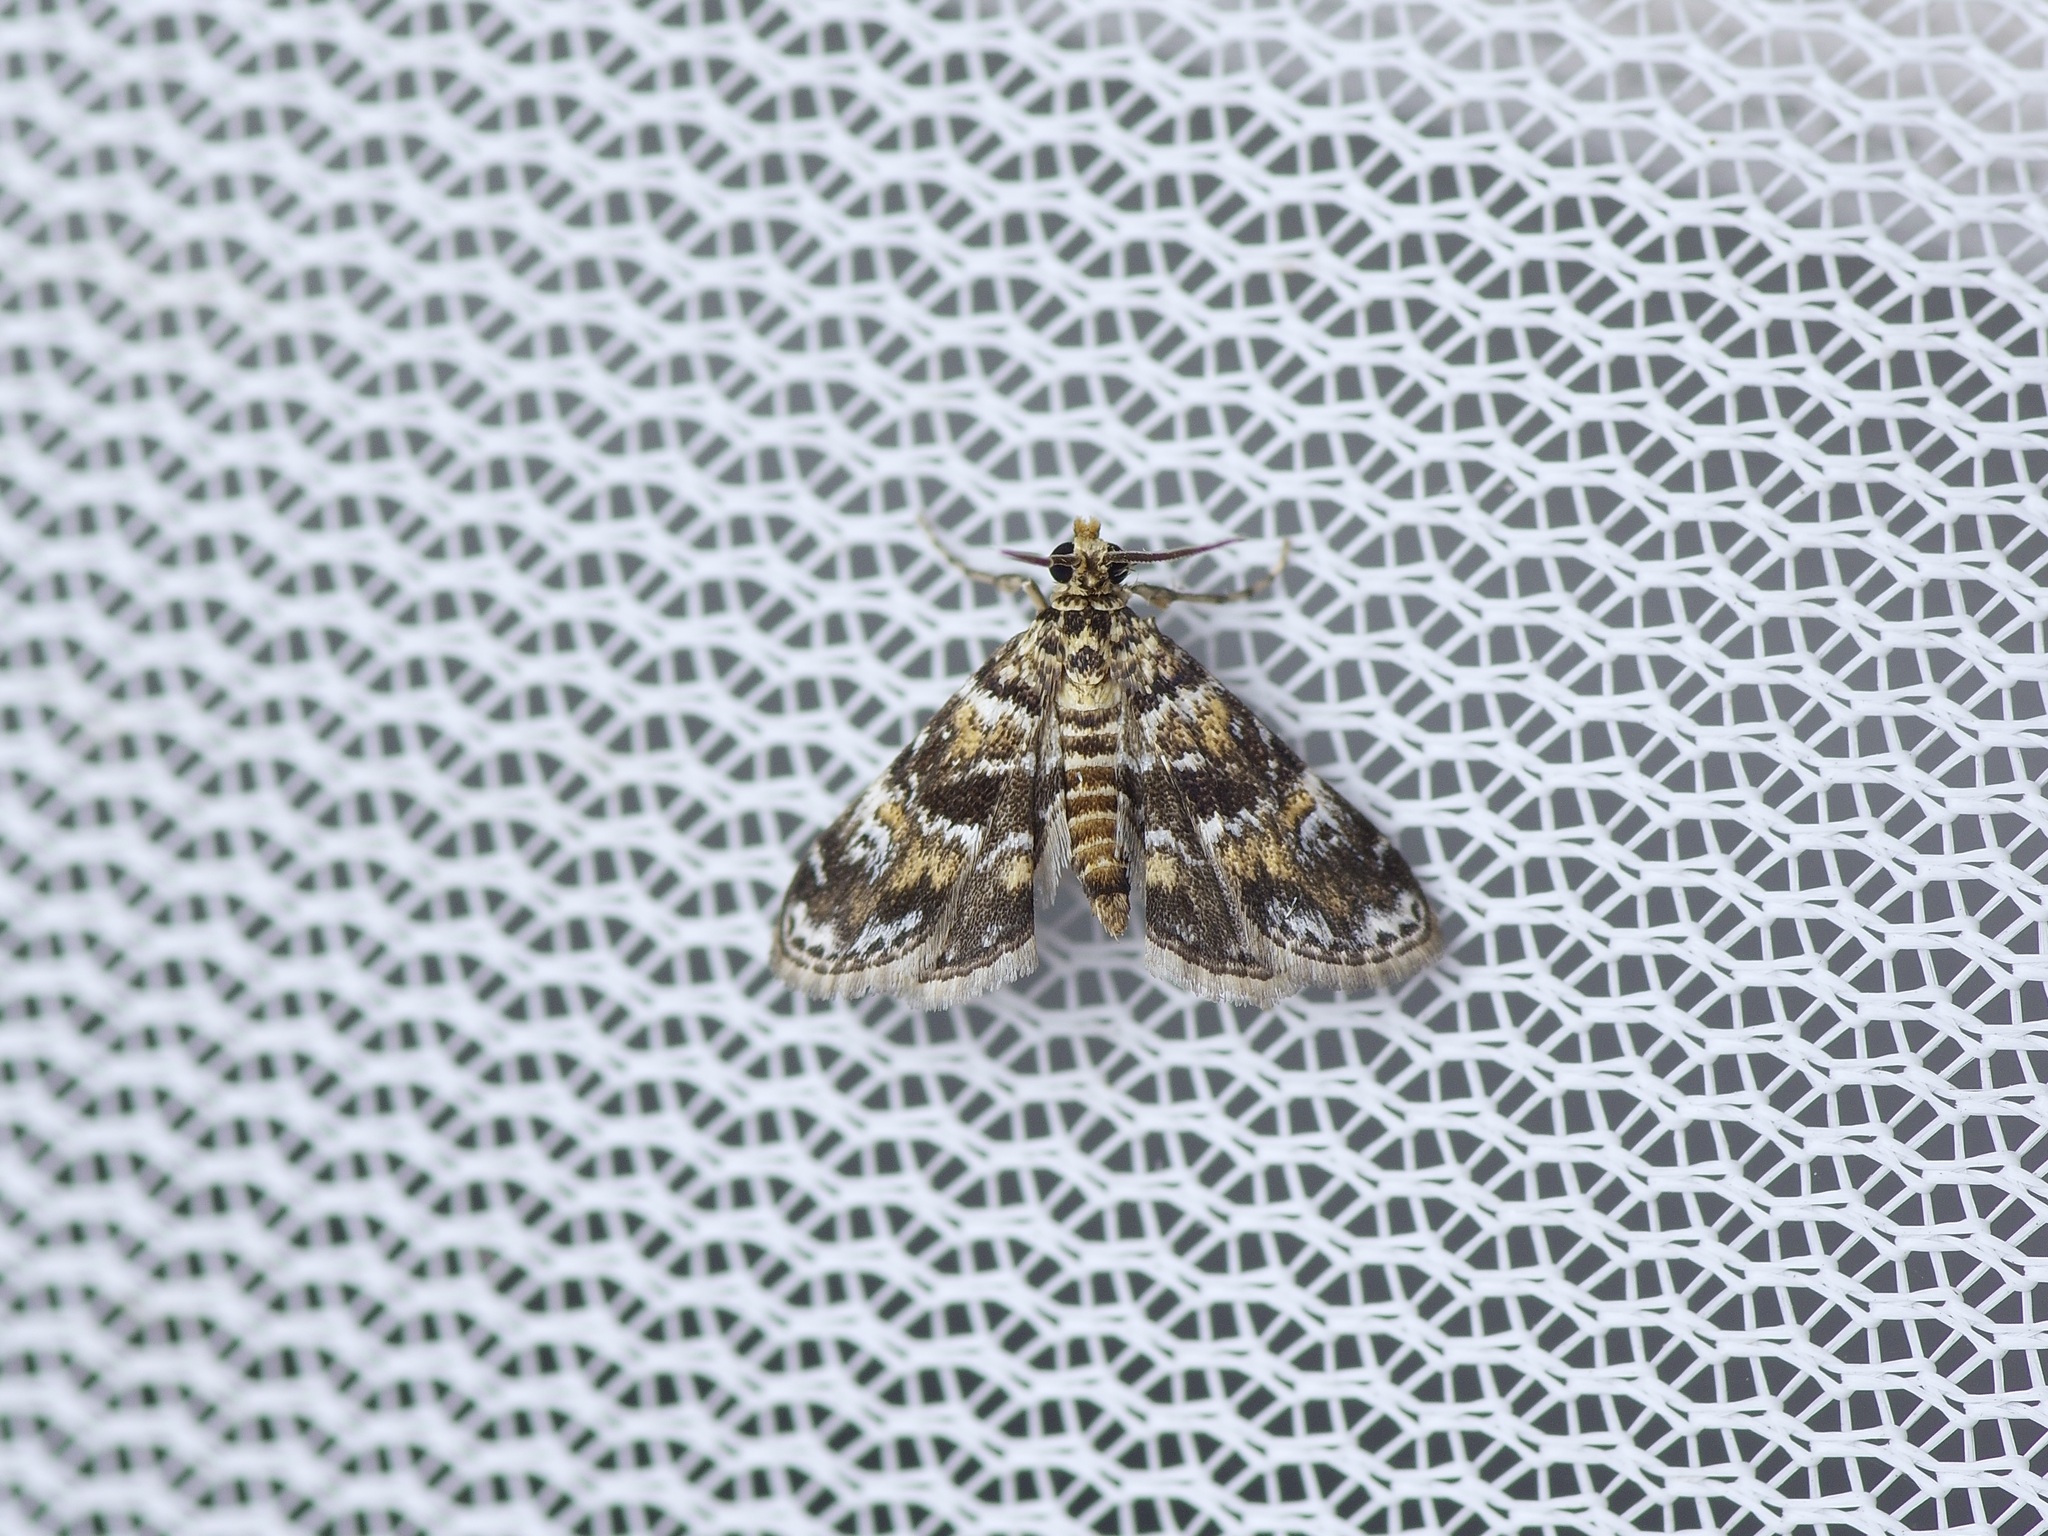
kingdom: Animalia
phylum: Arthropoda
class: Insecta
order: Lepidoptera
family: Crambidae
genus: Elophila
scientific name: Elophila obliteralis
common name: Waterlily leafcutter moth
